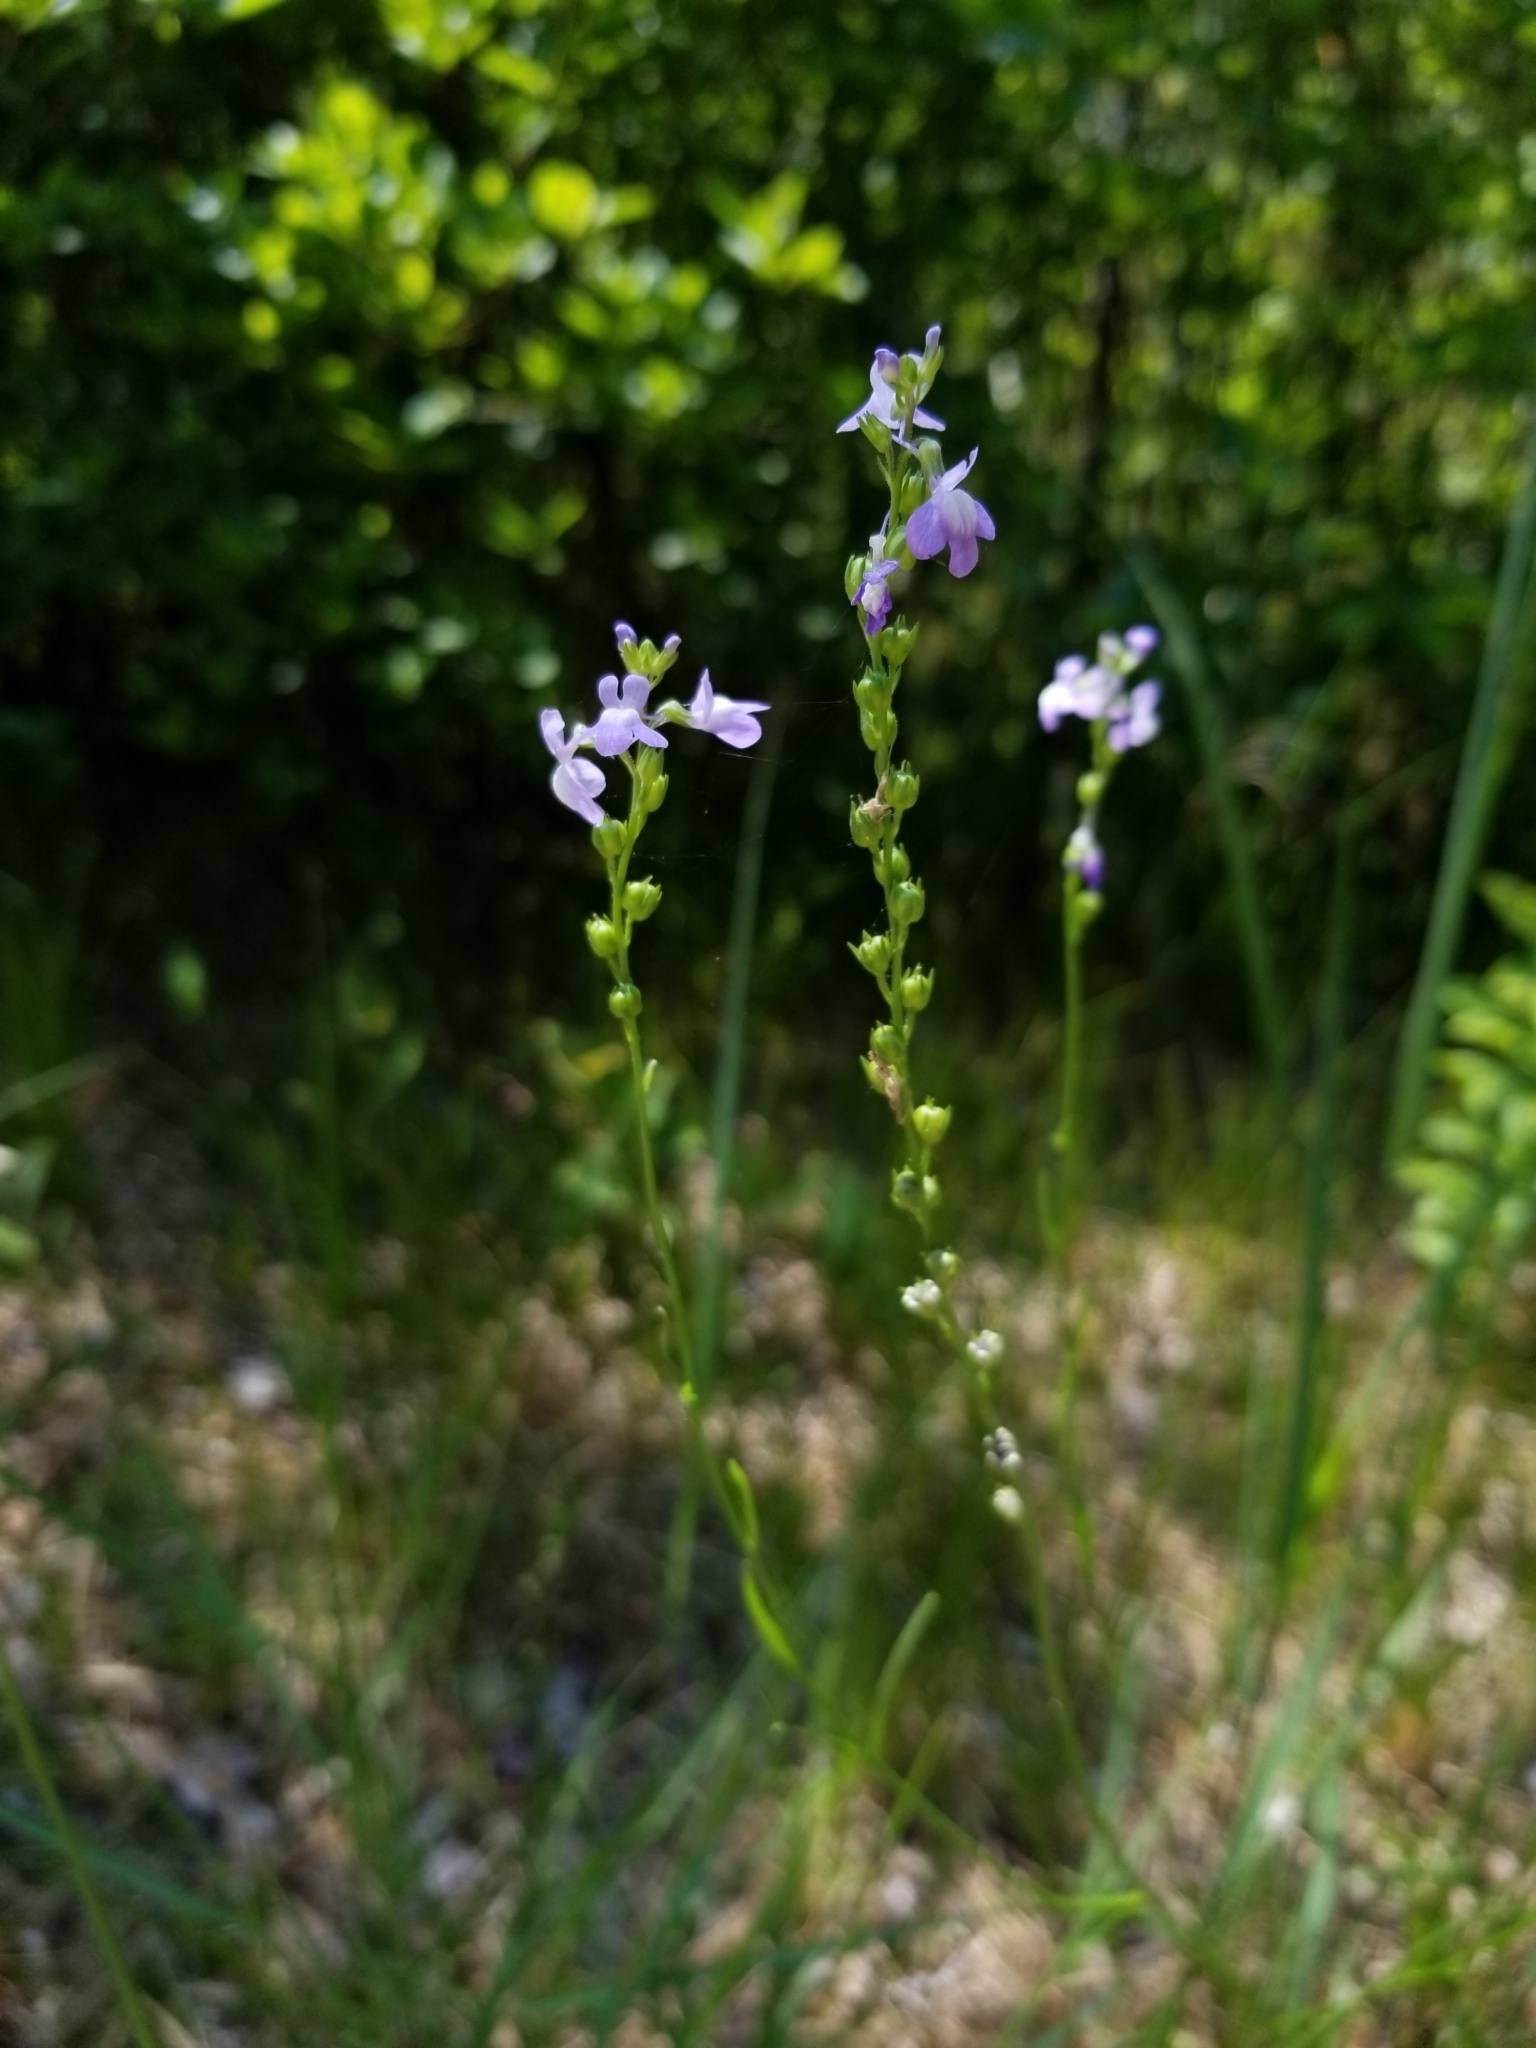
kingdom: Plantae
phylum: Tracheophyta
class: Magnoliopsida
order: Lamiales
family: Plantaginaceae
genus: Nuttallanthus
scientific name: Nuttallanthus canadensis
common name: Blue toadflax
